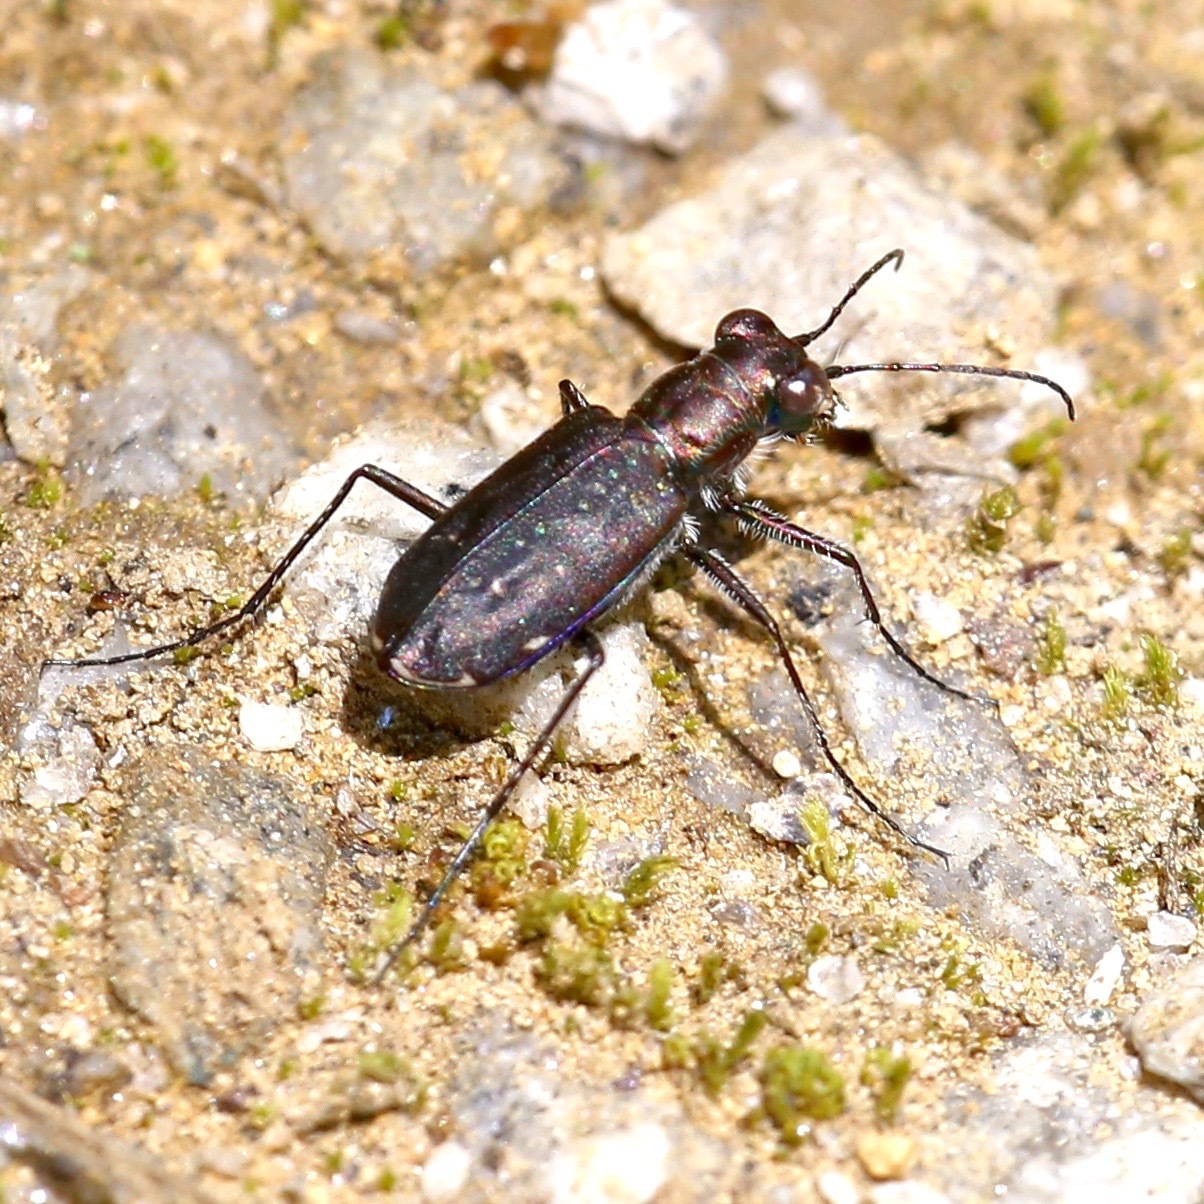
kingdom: Animalia
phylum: Arthropoda
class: Insecta
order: Coleoptera
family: Carabidae
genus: Cicindela
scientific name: Cicindela punctulata
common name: Punctured tiger beetle
